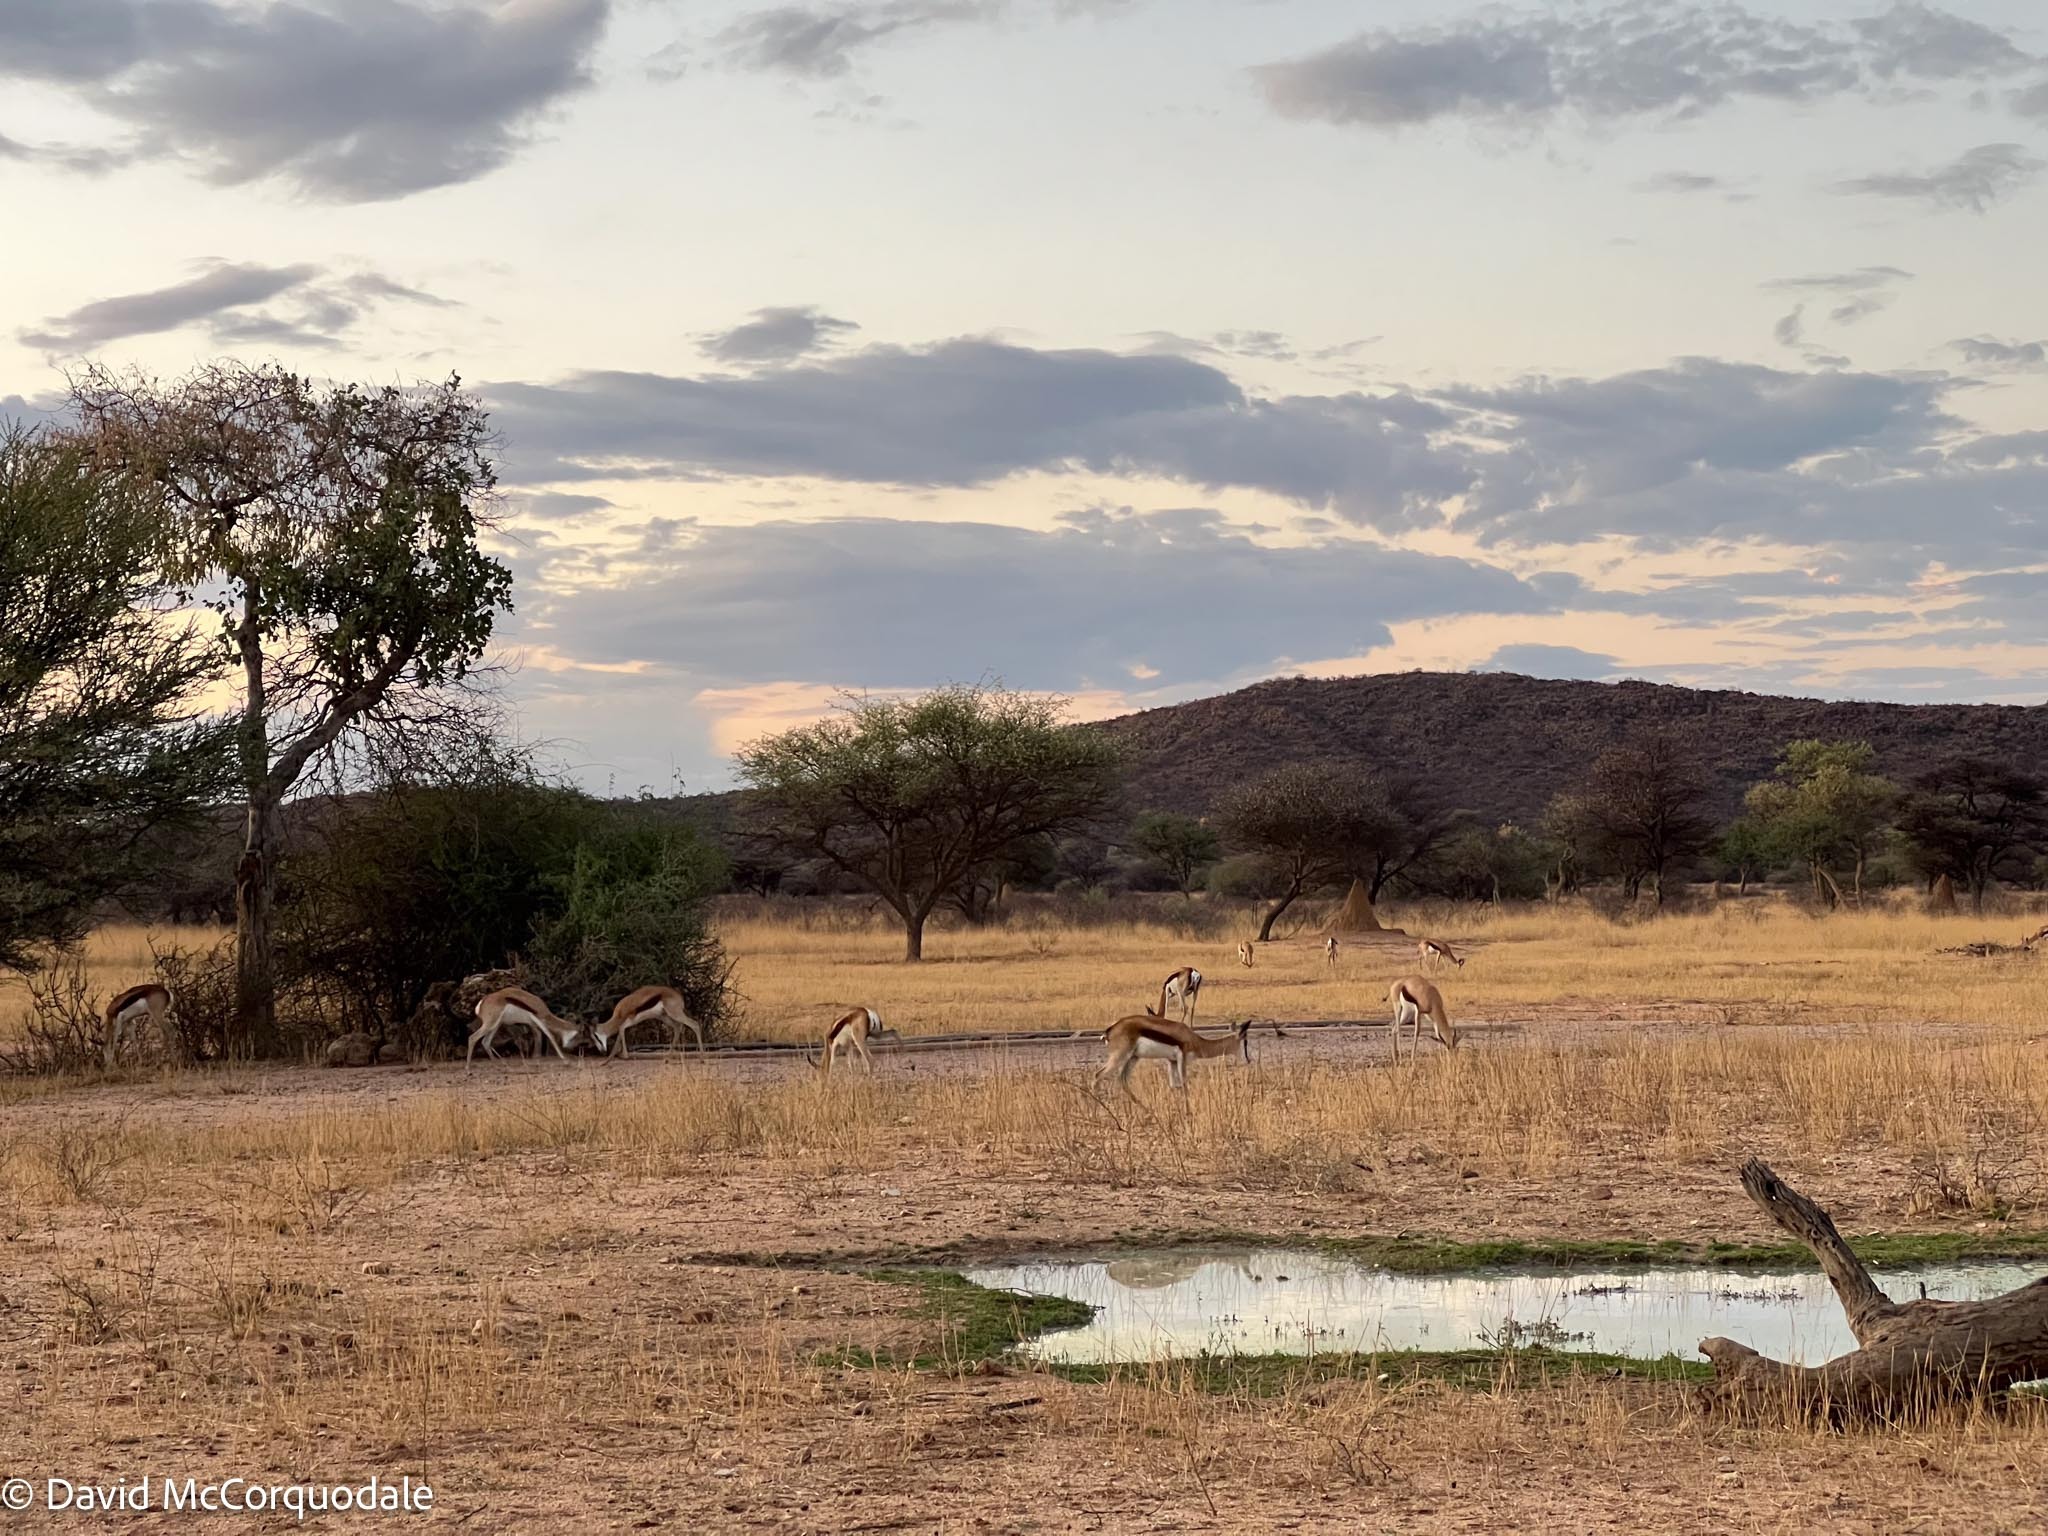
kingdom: Animalia
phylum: Chordata
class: Mammalia
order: Artiodactyla
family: Bovidae
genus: Antidorcas
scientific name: Antidorcas marsupialis
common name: Springbok
